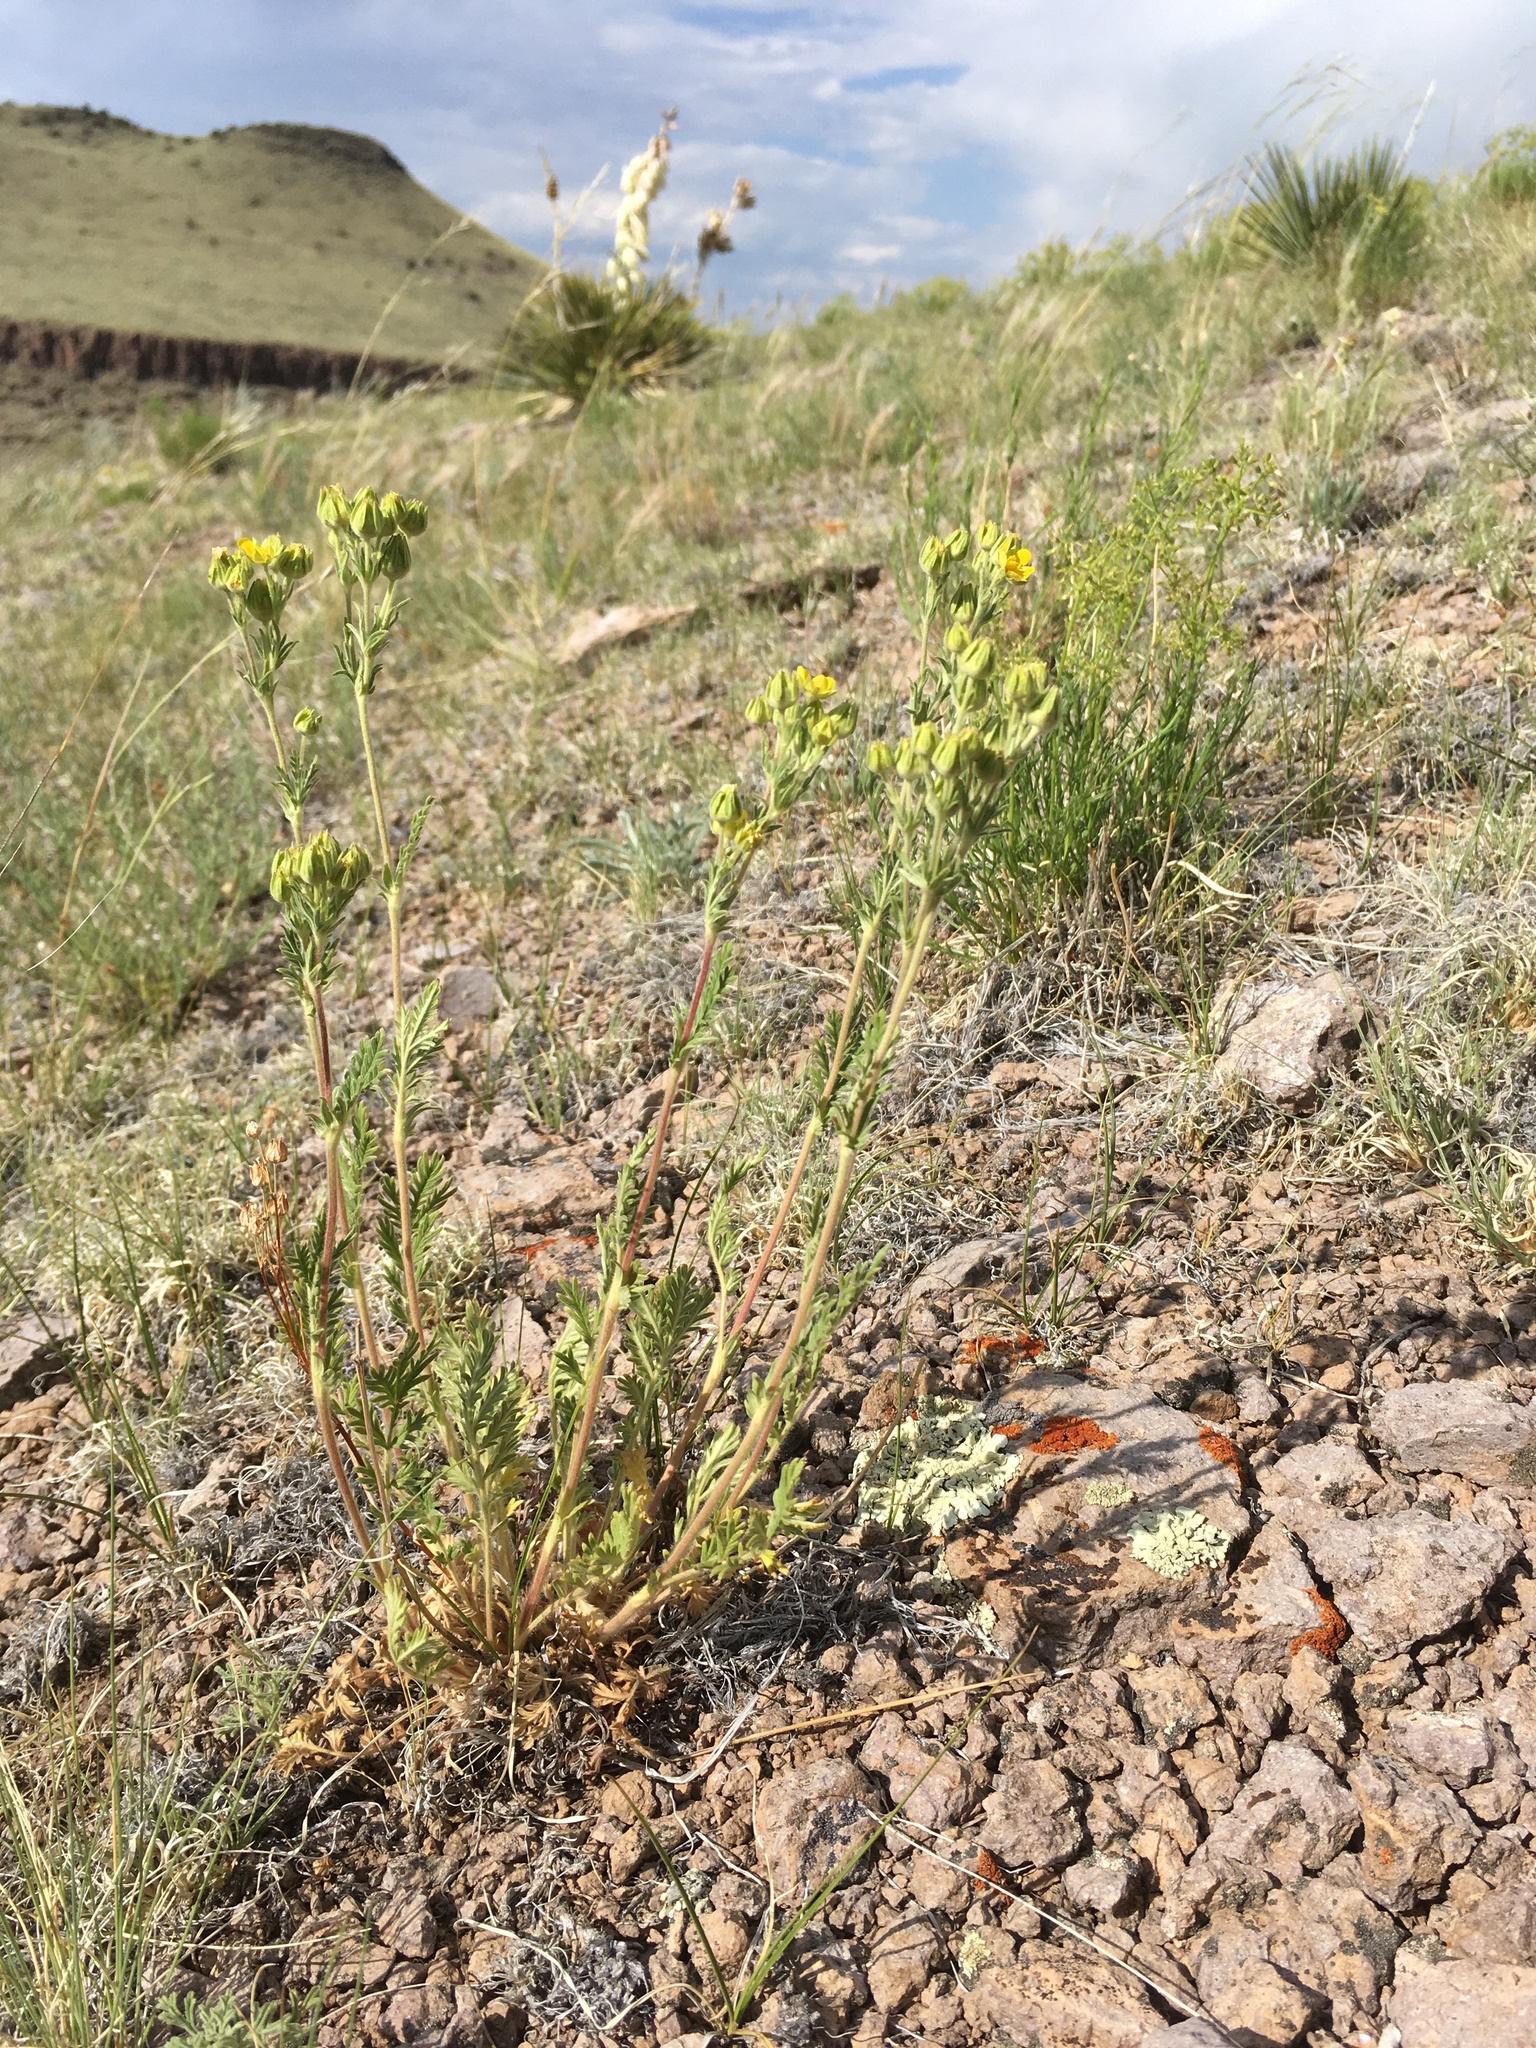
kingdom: Plantae
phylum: Tracheophyta
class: Magnoliopsida
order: Rosales
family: Rosaceae
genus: Potentilla
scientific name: Potentilla pensylvanica
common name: Pennsylvania cinquefoil
